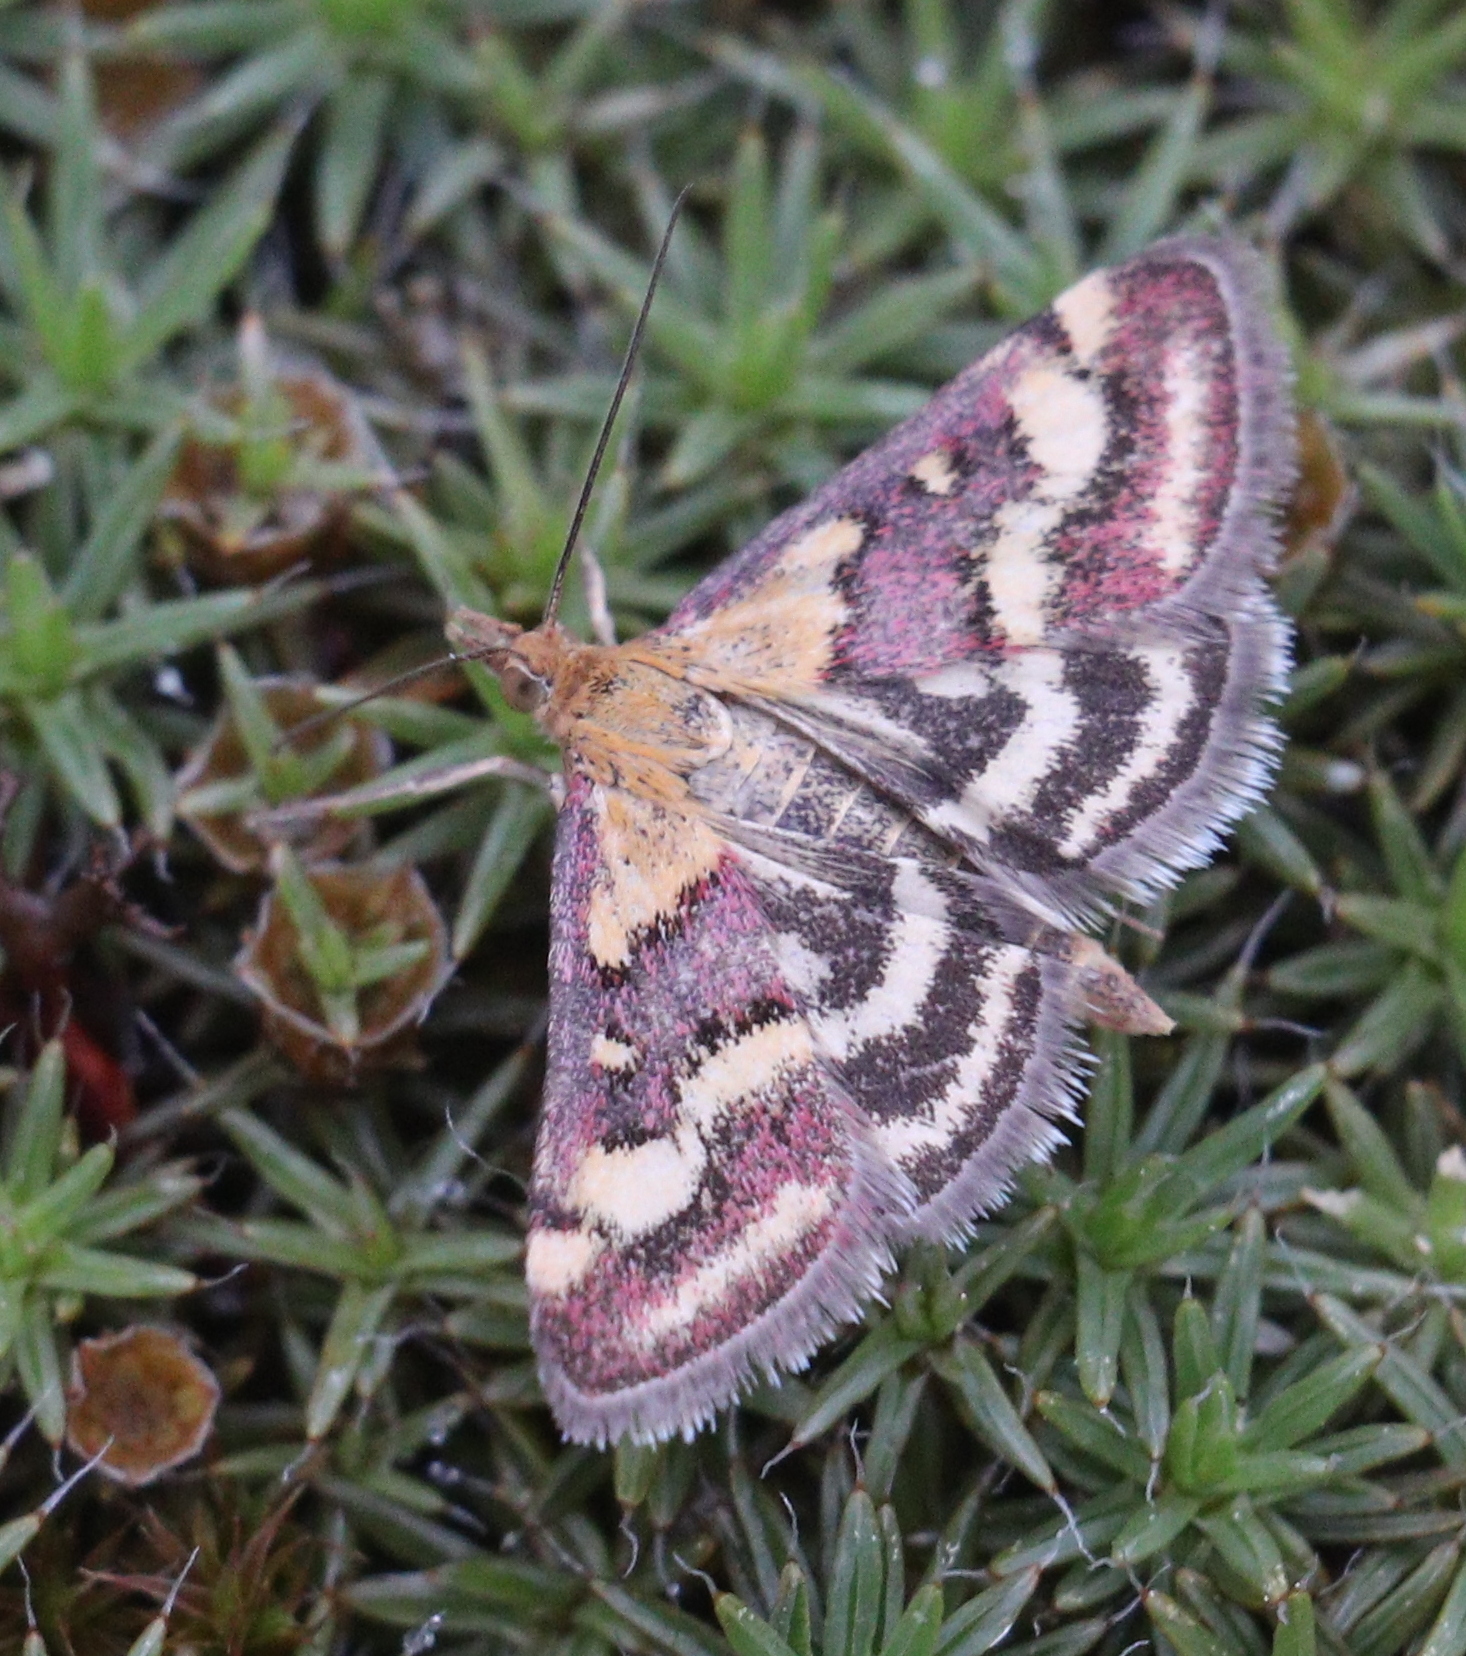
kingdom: Animalia
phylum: Arthropoda
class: Insecta
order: Lepidoptera
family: Crambidae
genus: Pyrausta
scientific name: Pyrausta ostrinalis
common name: Scarce purple & gold
